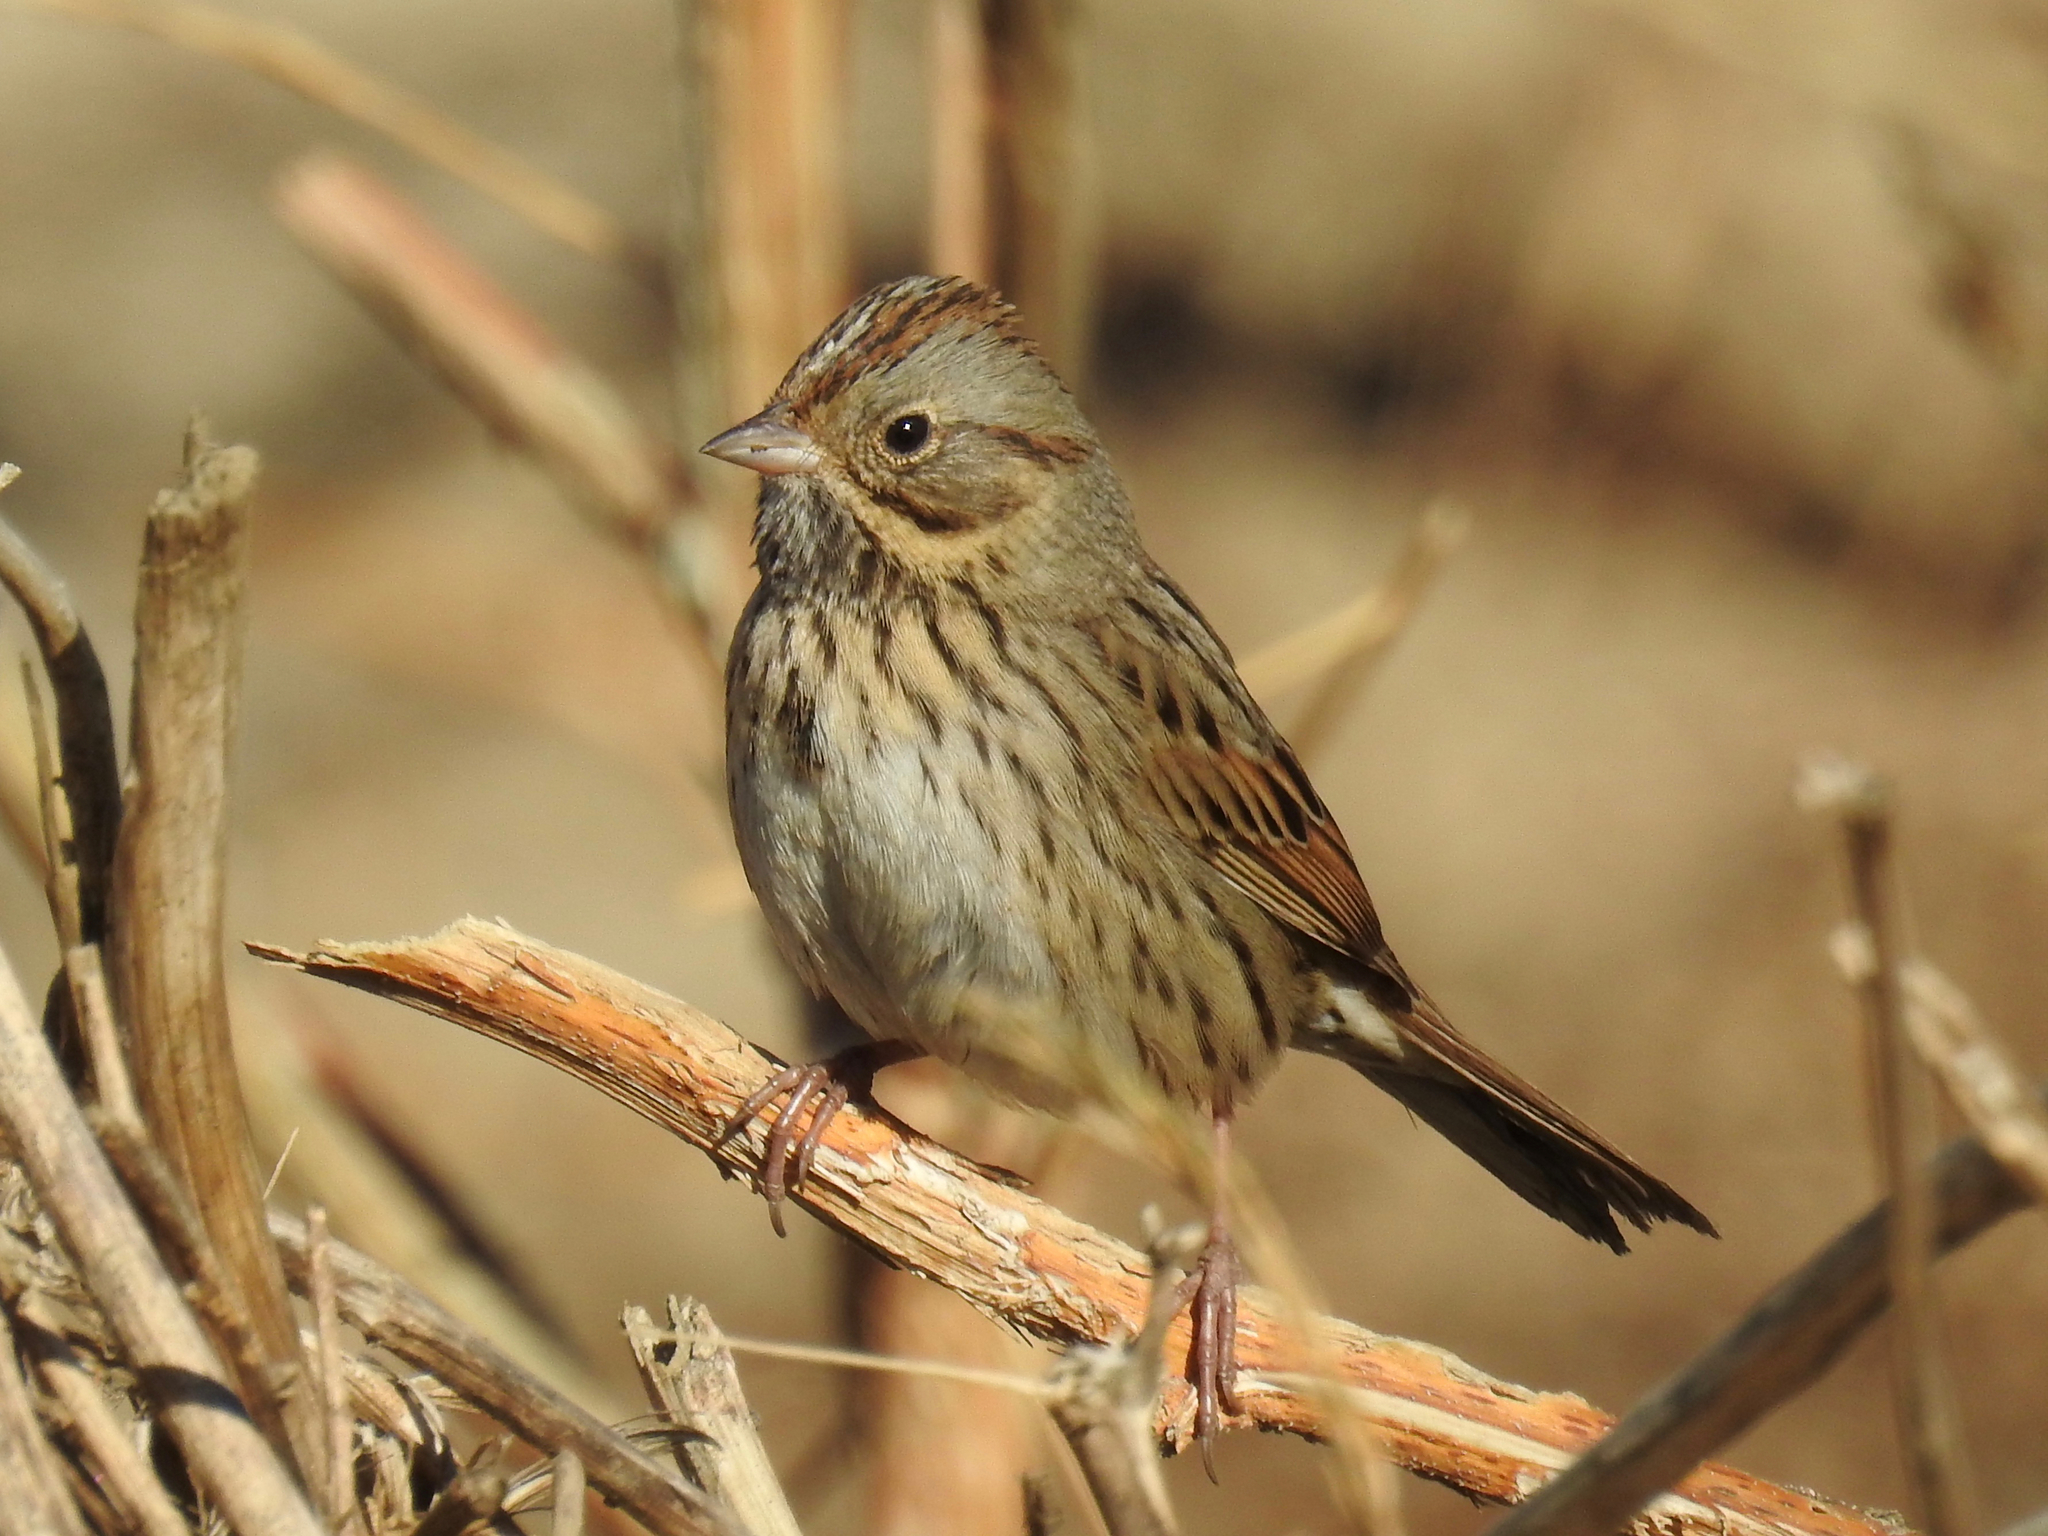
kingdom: Animalia
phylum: Chordata
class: Aves
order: Passeriformes
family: Passerellidae
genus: Melospiza
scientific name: Melospiza lincolnii
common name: Lincoln's sparrow
